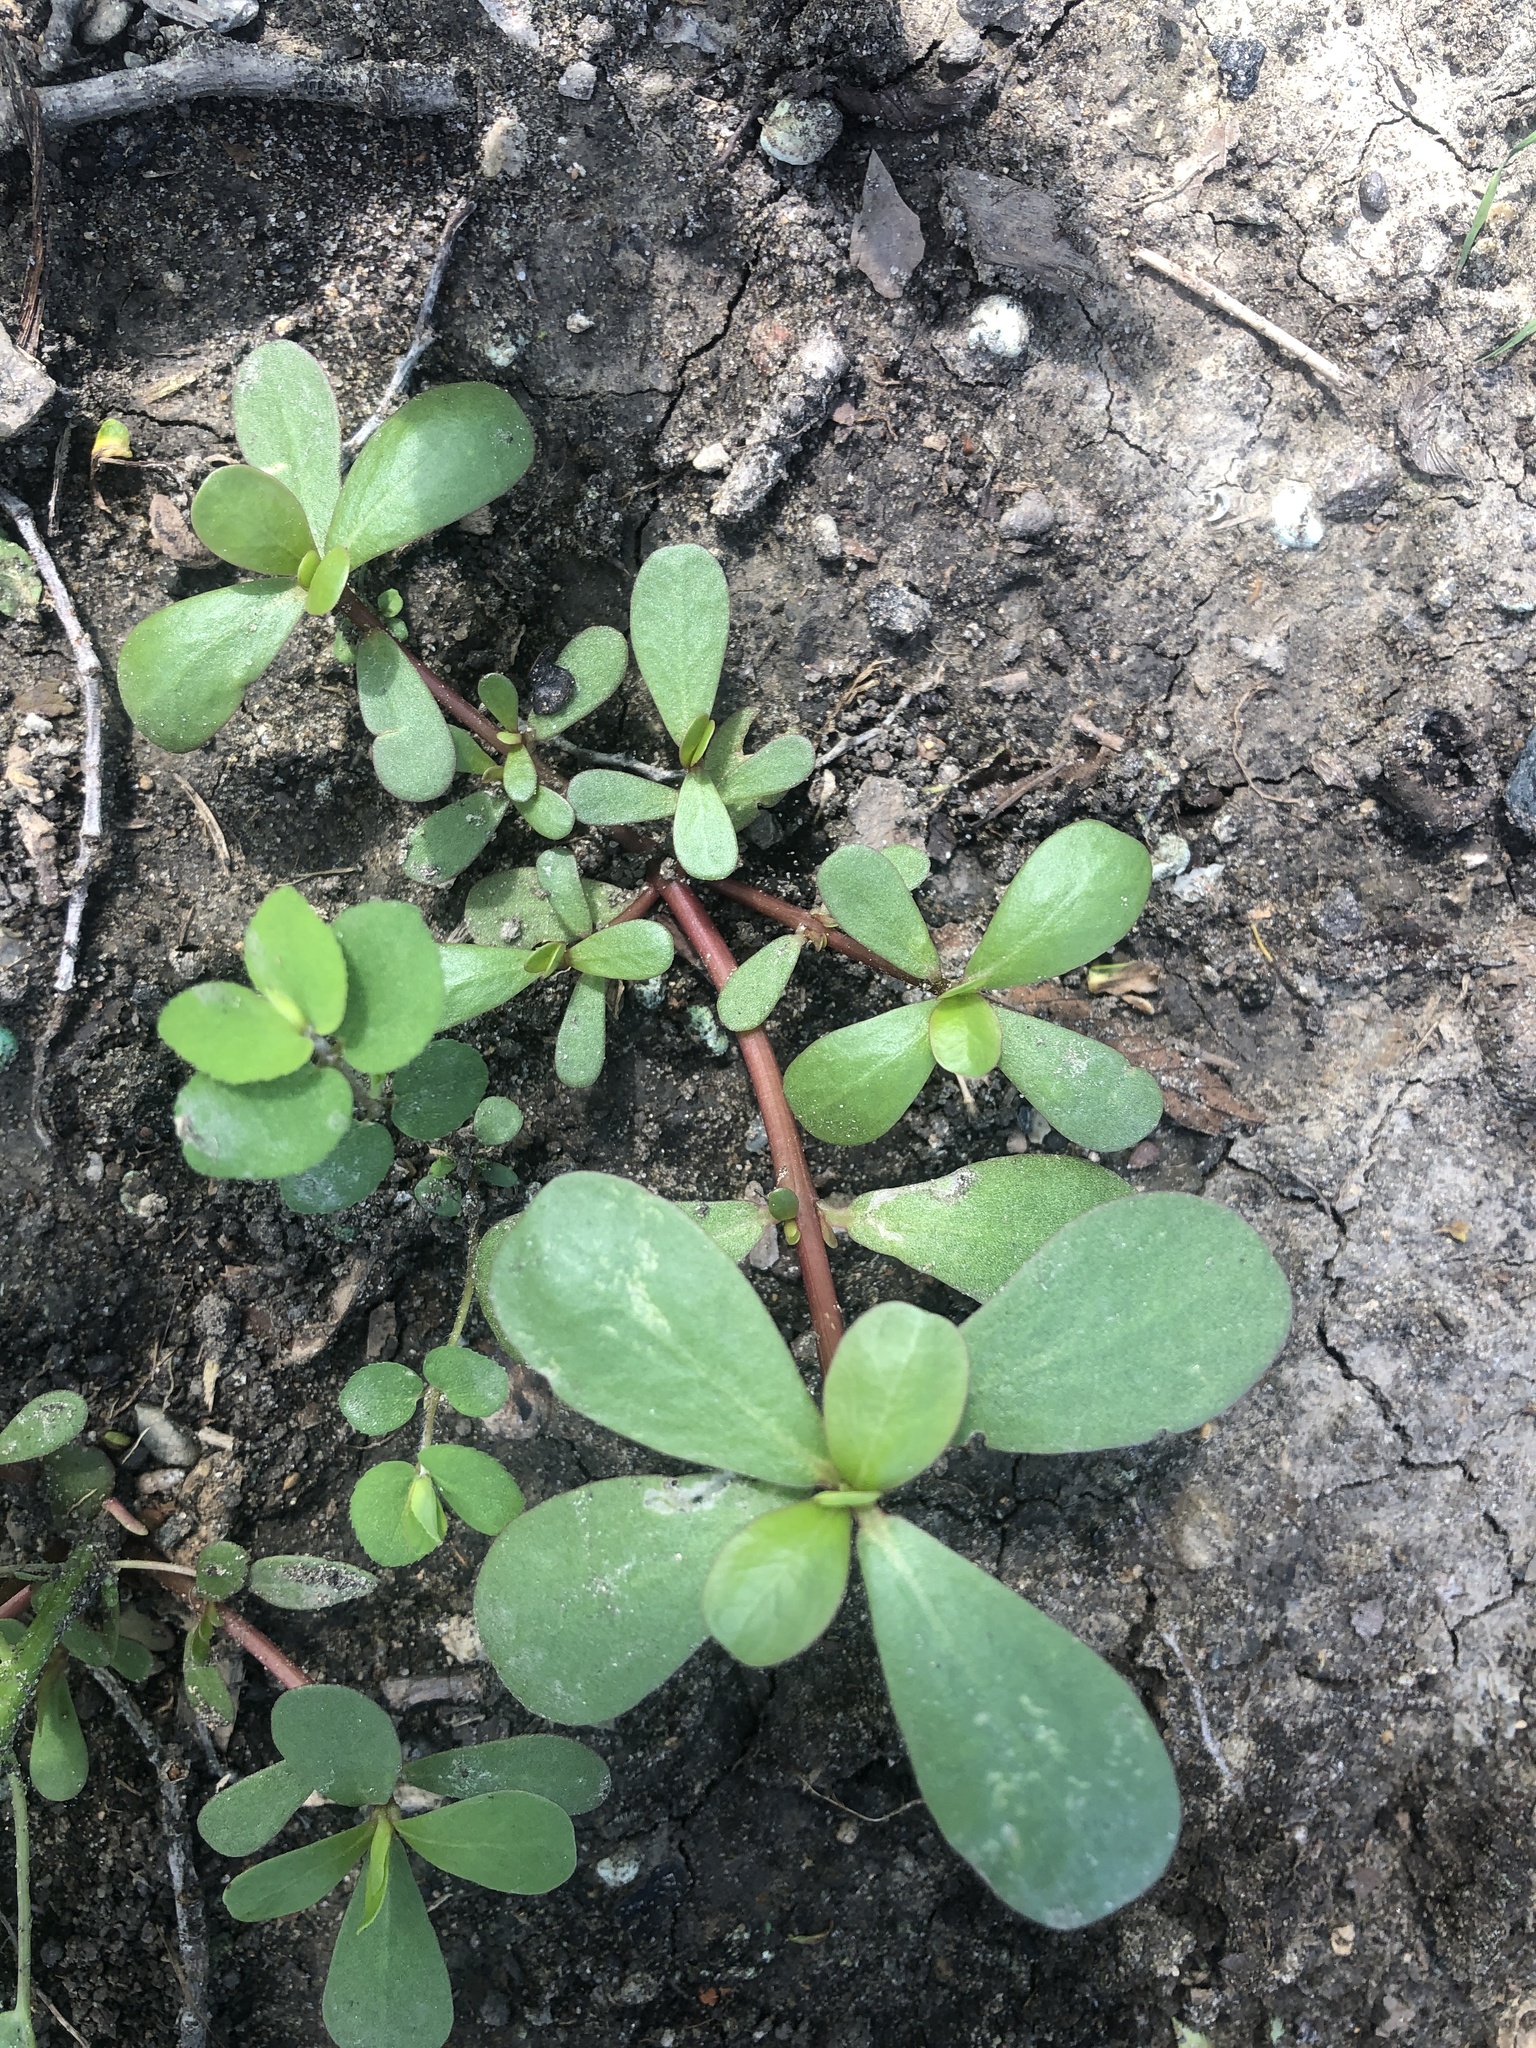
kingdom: Plantae
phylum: Tracheophyta
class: Magnoliopsida
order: Caryophyllales
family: Portulacaceae
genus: Portulaca
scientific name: Portulaca oleracea
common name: Common purslane
